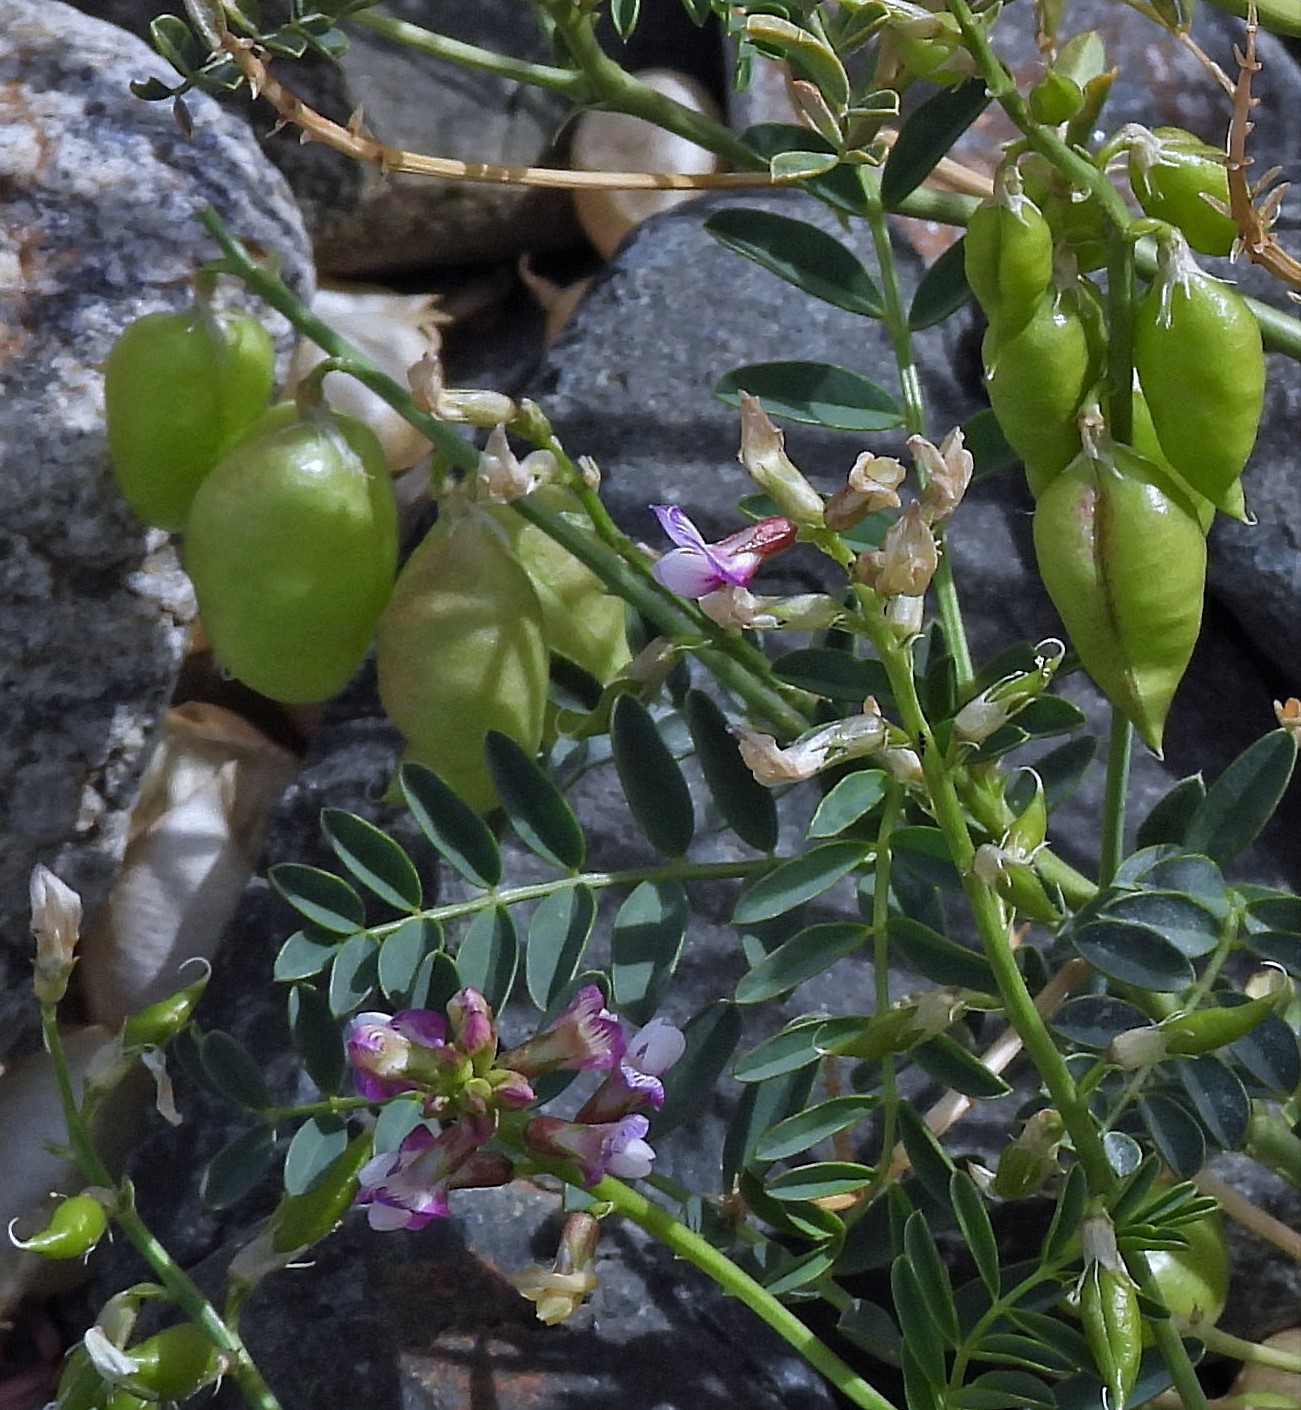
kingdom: Plantae
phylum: Tracheophyta
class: Magnoliopsida
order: Fabales
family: Fabaceae
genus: Astragalus
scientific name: Astragalus pehuenches
